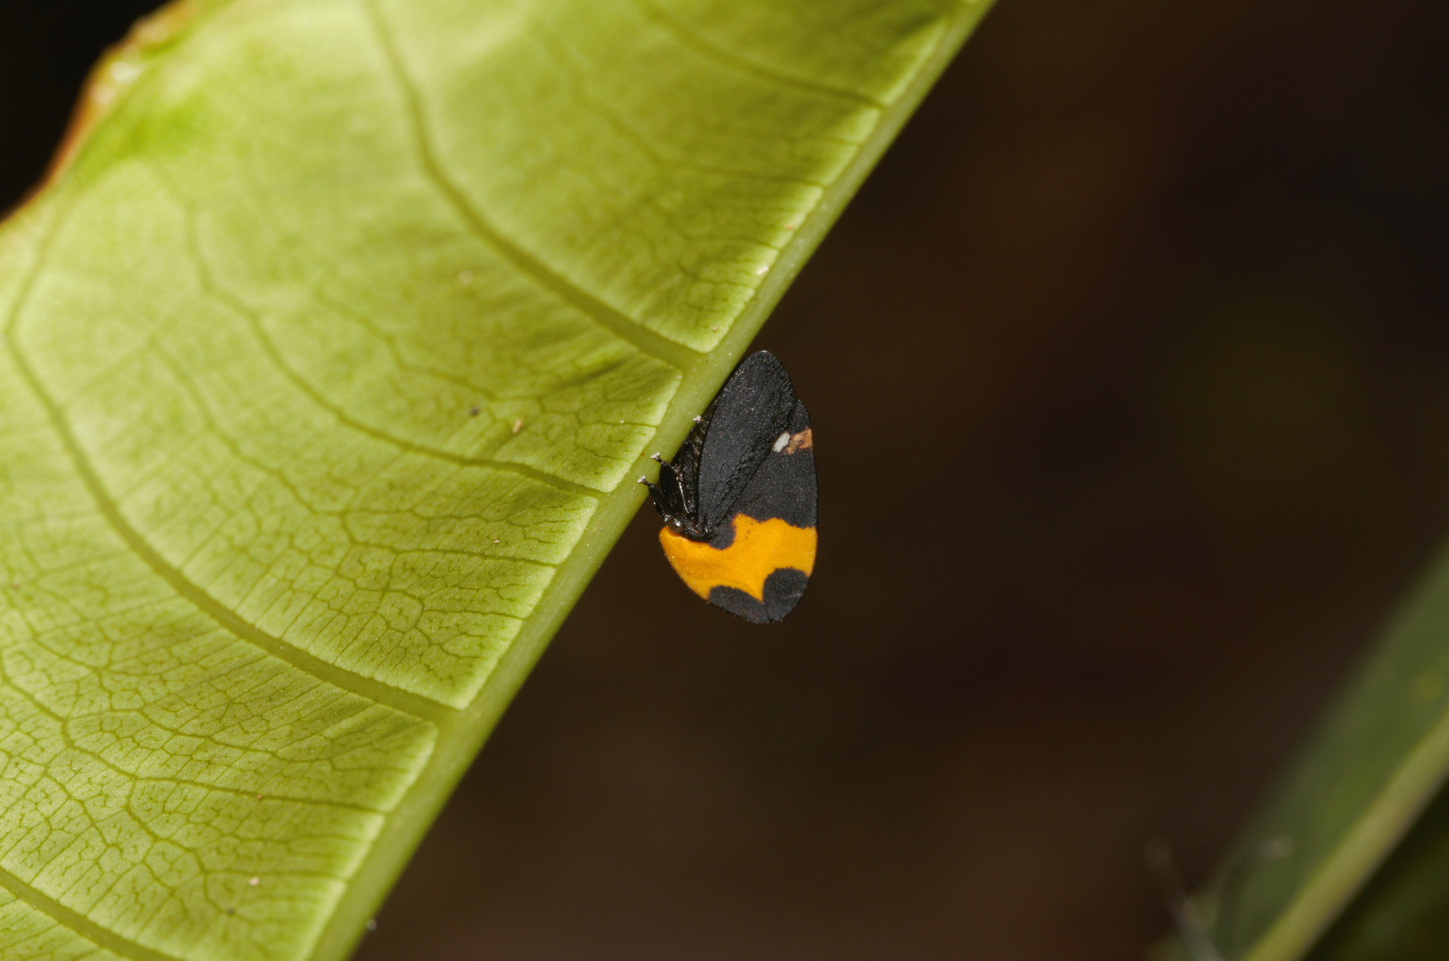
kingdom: Animalia
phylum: Arthropoda
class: Insecta
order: Hemiptera
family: Membracidae
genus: Phyllotropis
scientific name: Phyllotropis fasciata
